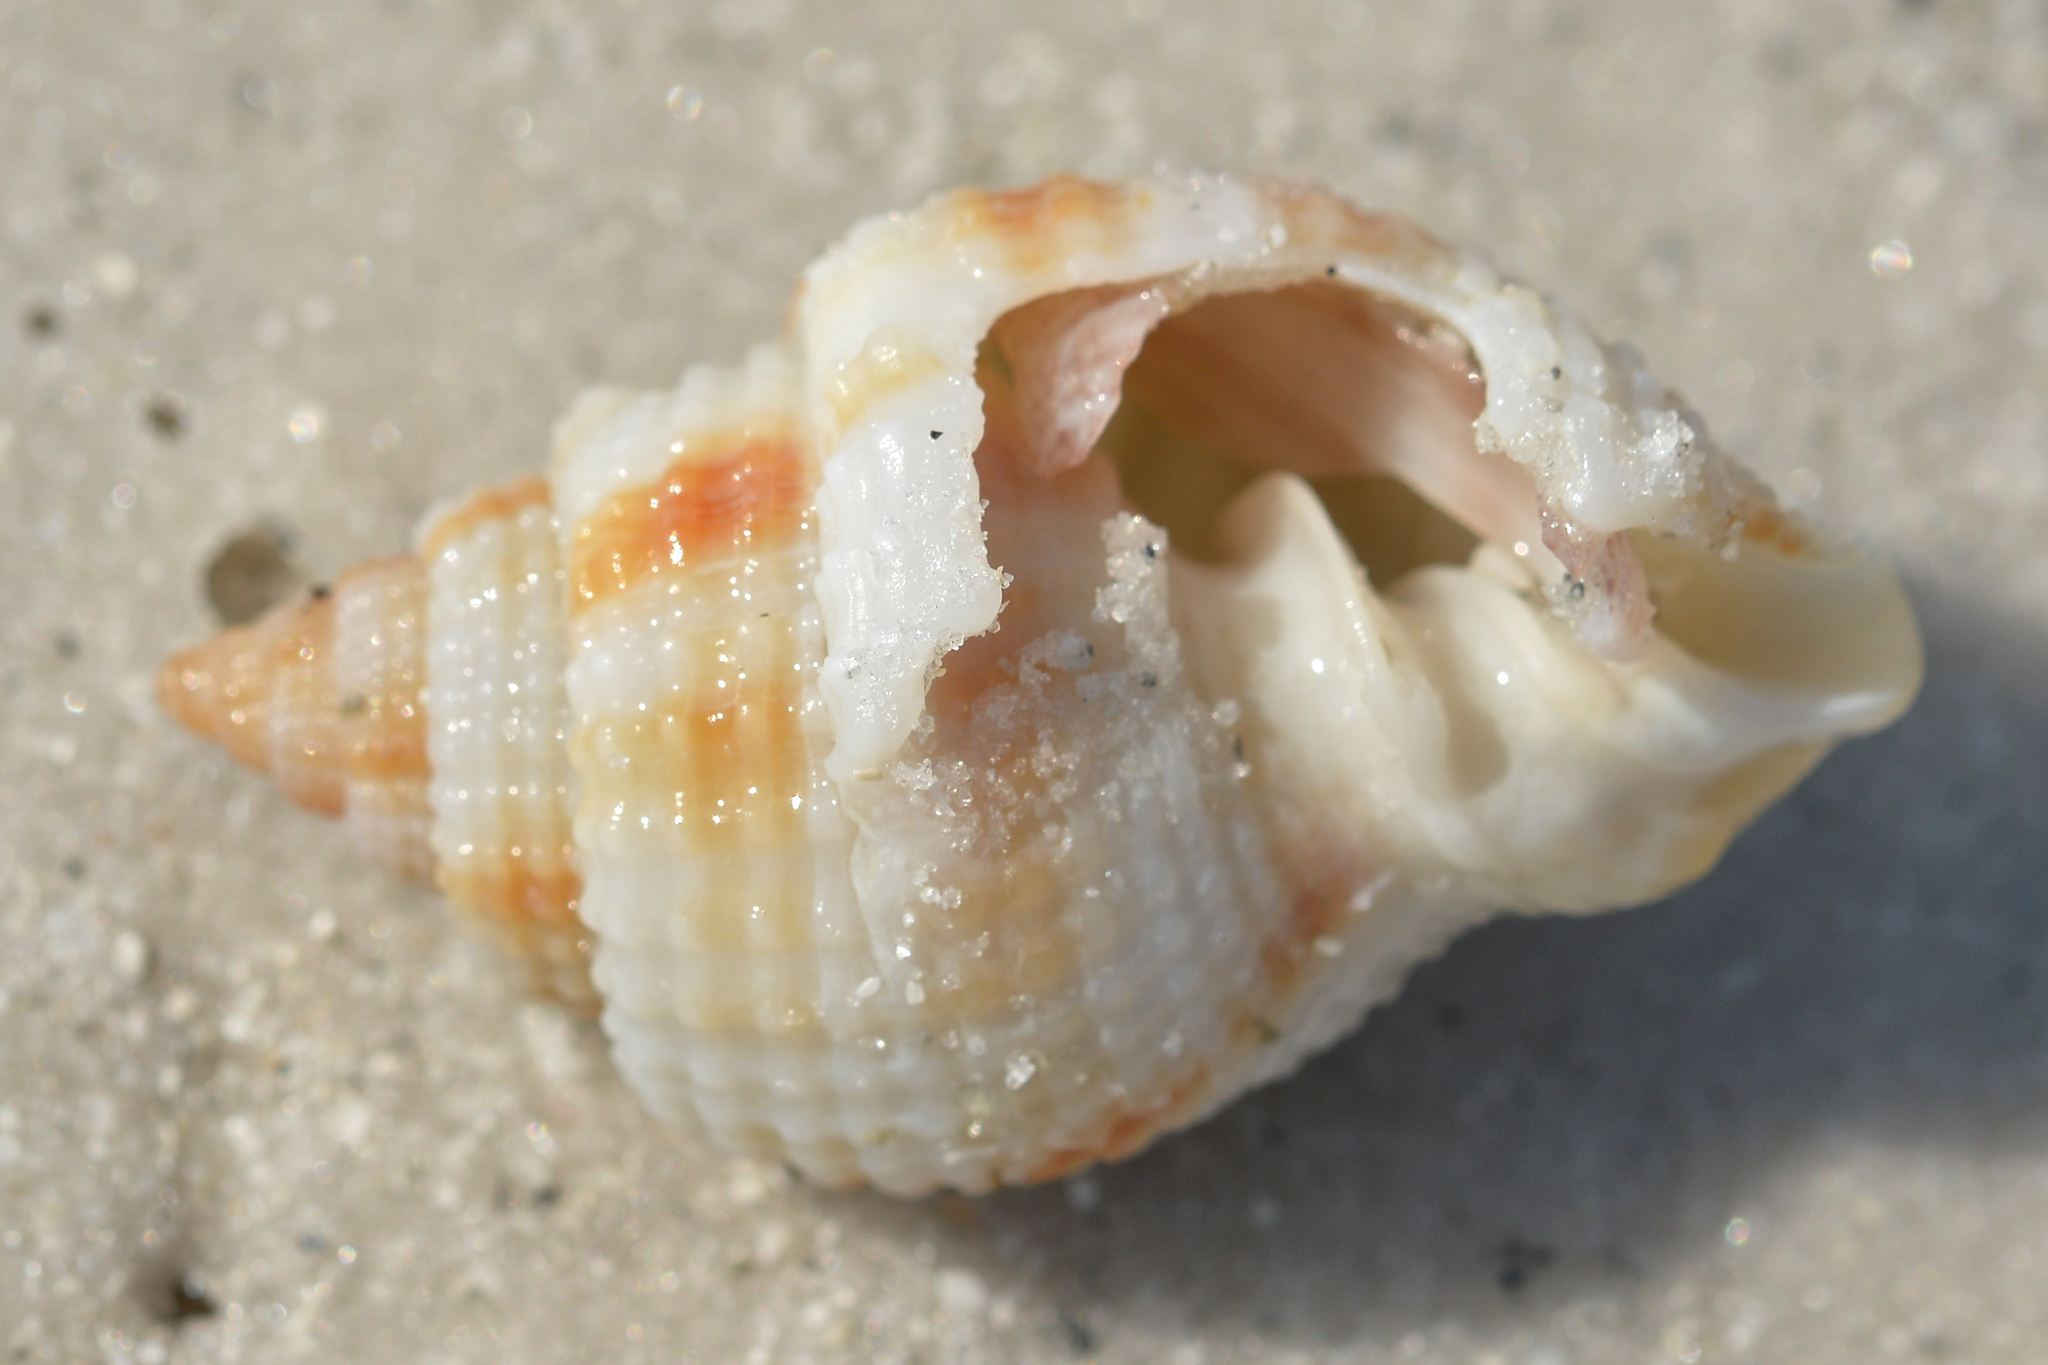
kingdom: Animalia
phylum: Mollusca
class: Gastropoda
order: Neogastropoda
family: Cancellariidae
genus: Cancellaria
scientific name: Cancellaria reticulata
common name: Common nutmeg
